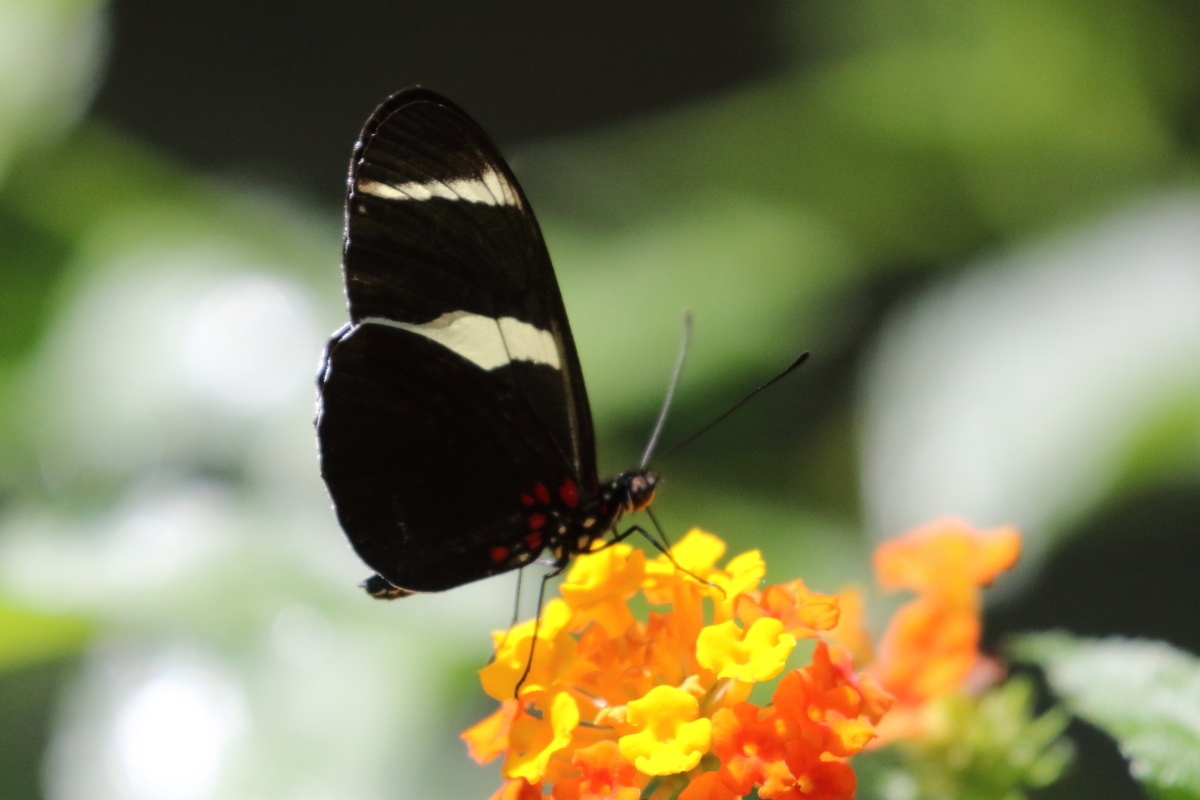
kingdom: Animalia
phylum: Arthropoda
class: Insecta
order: Lepidoptera
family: Nymphalidae
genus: Heliconius
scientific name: Heliconius sara
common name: Sara longwing
